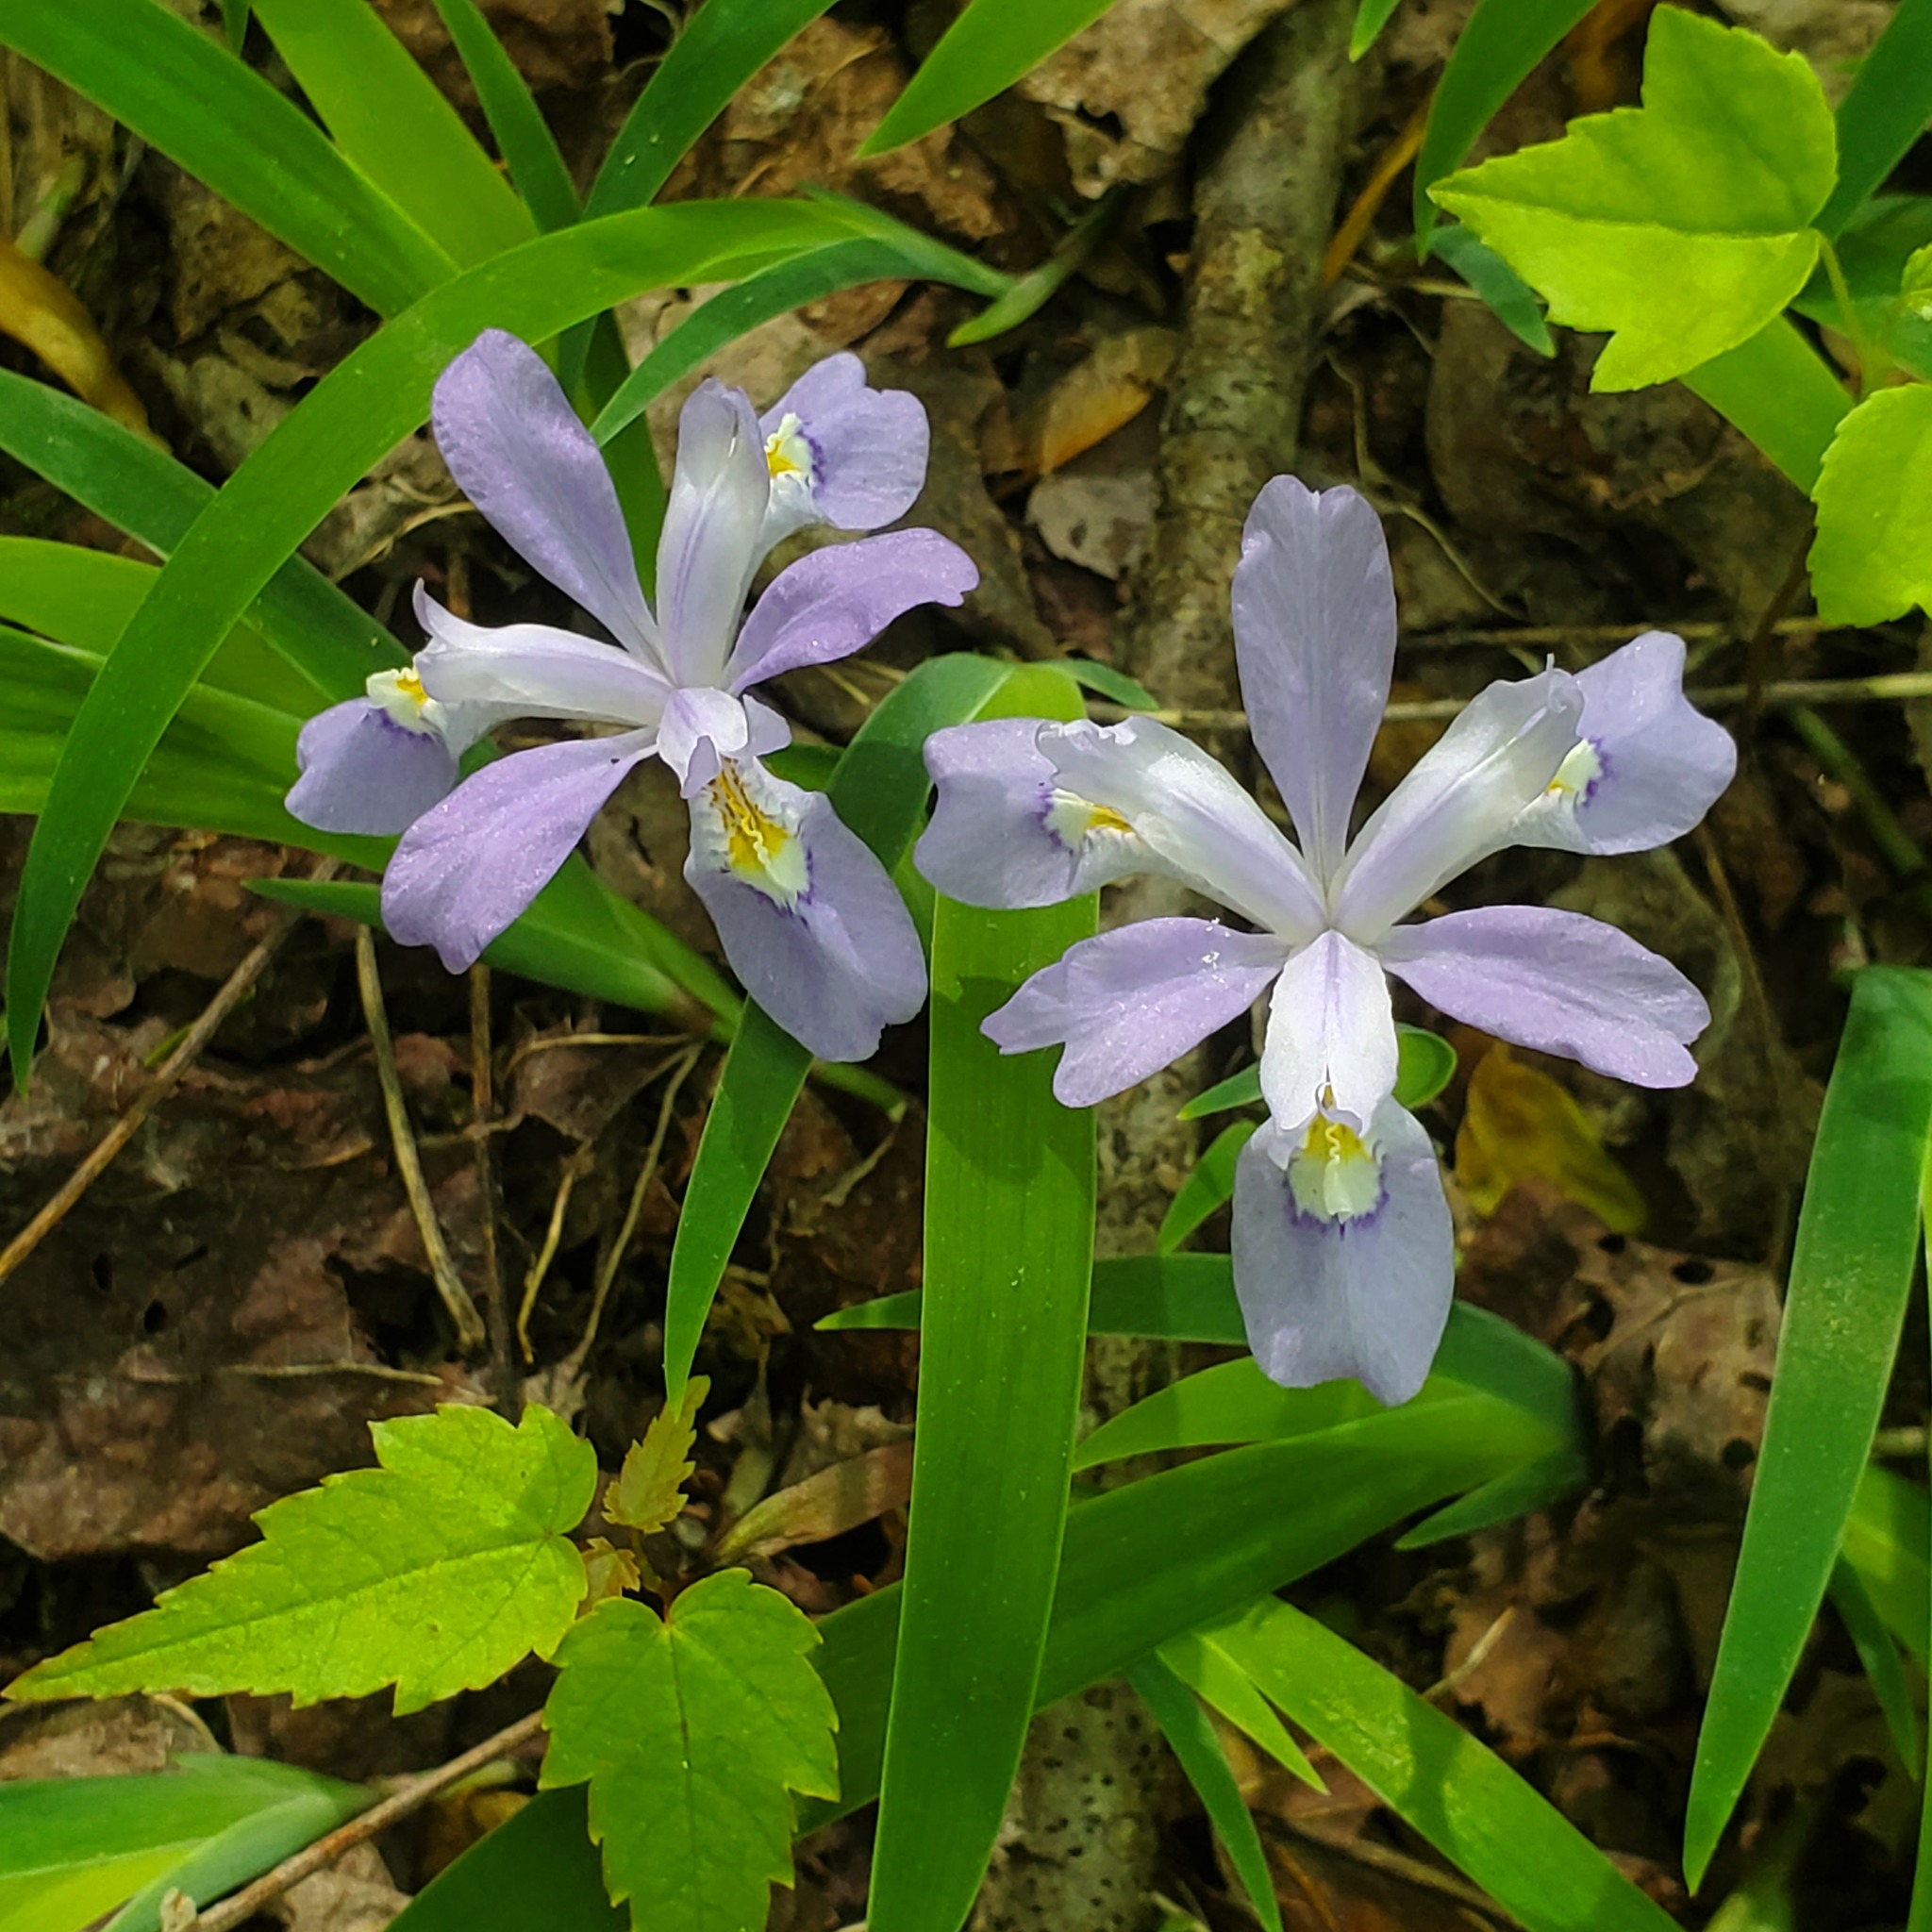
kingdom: Plantae
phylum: Tracheophyta
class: Liliopsida
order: Asparagales
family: Iridaceae
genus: Iris
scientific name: Iris cristata
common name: Crested iris
